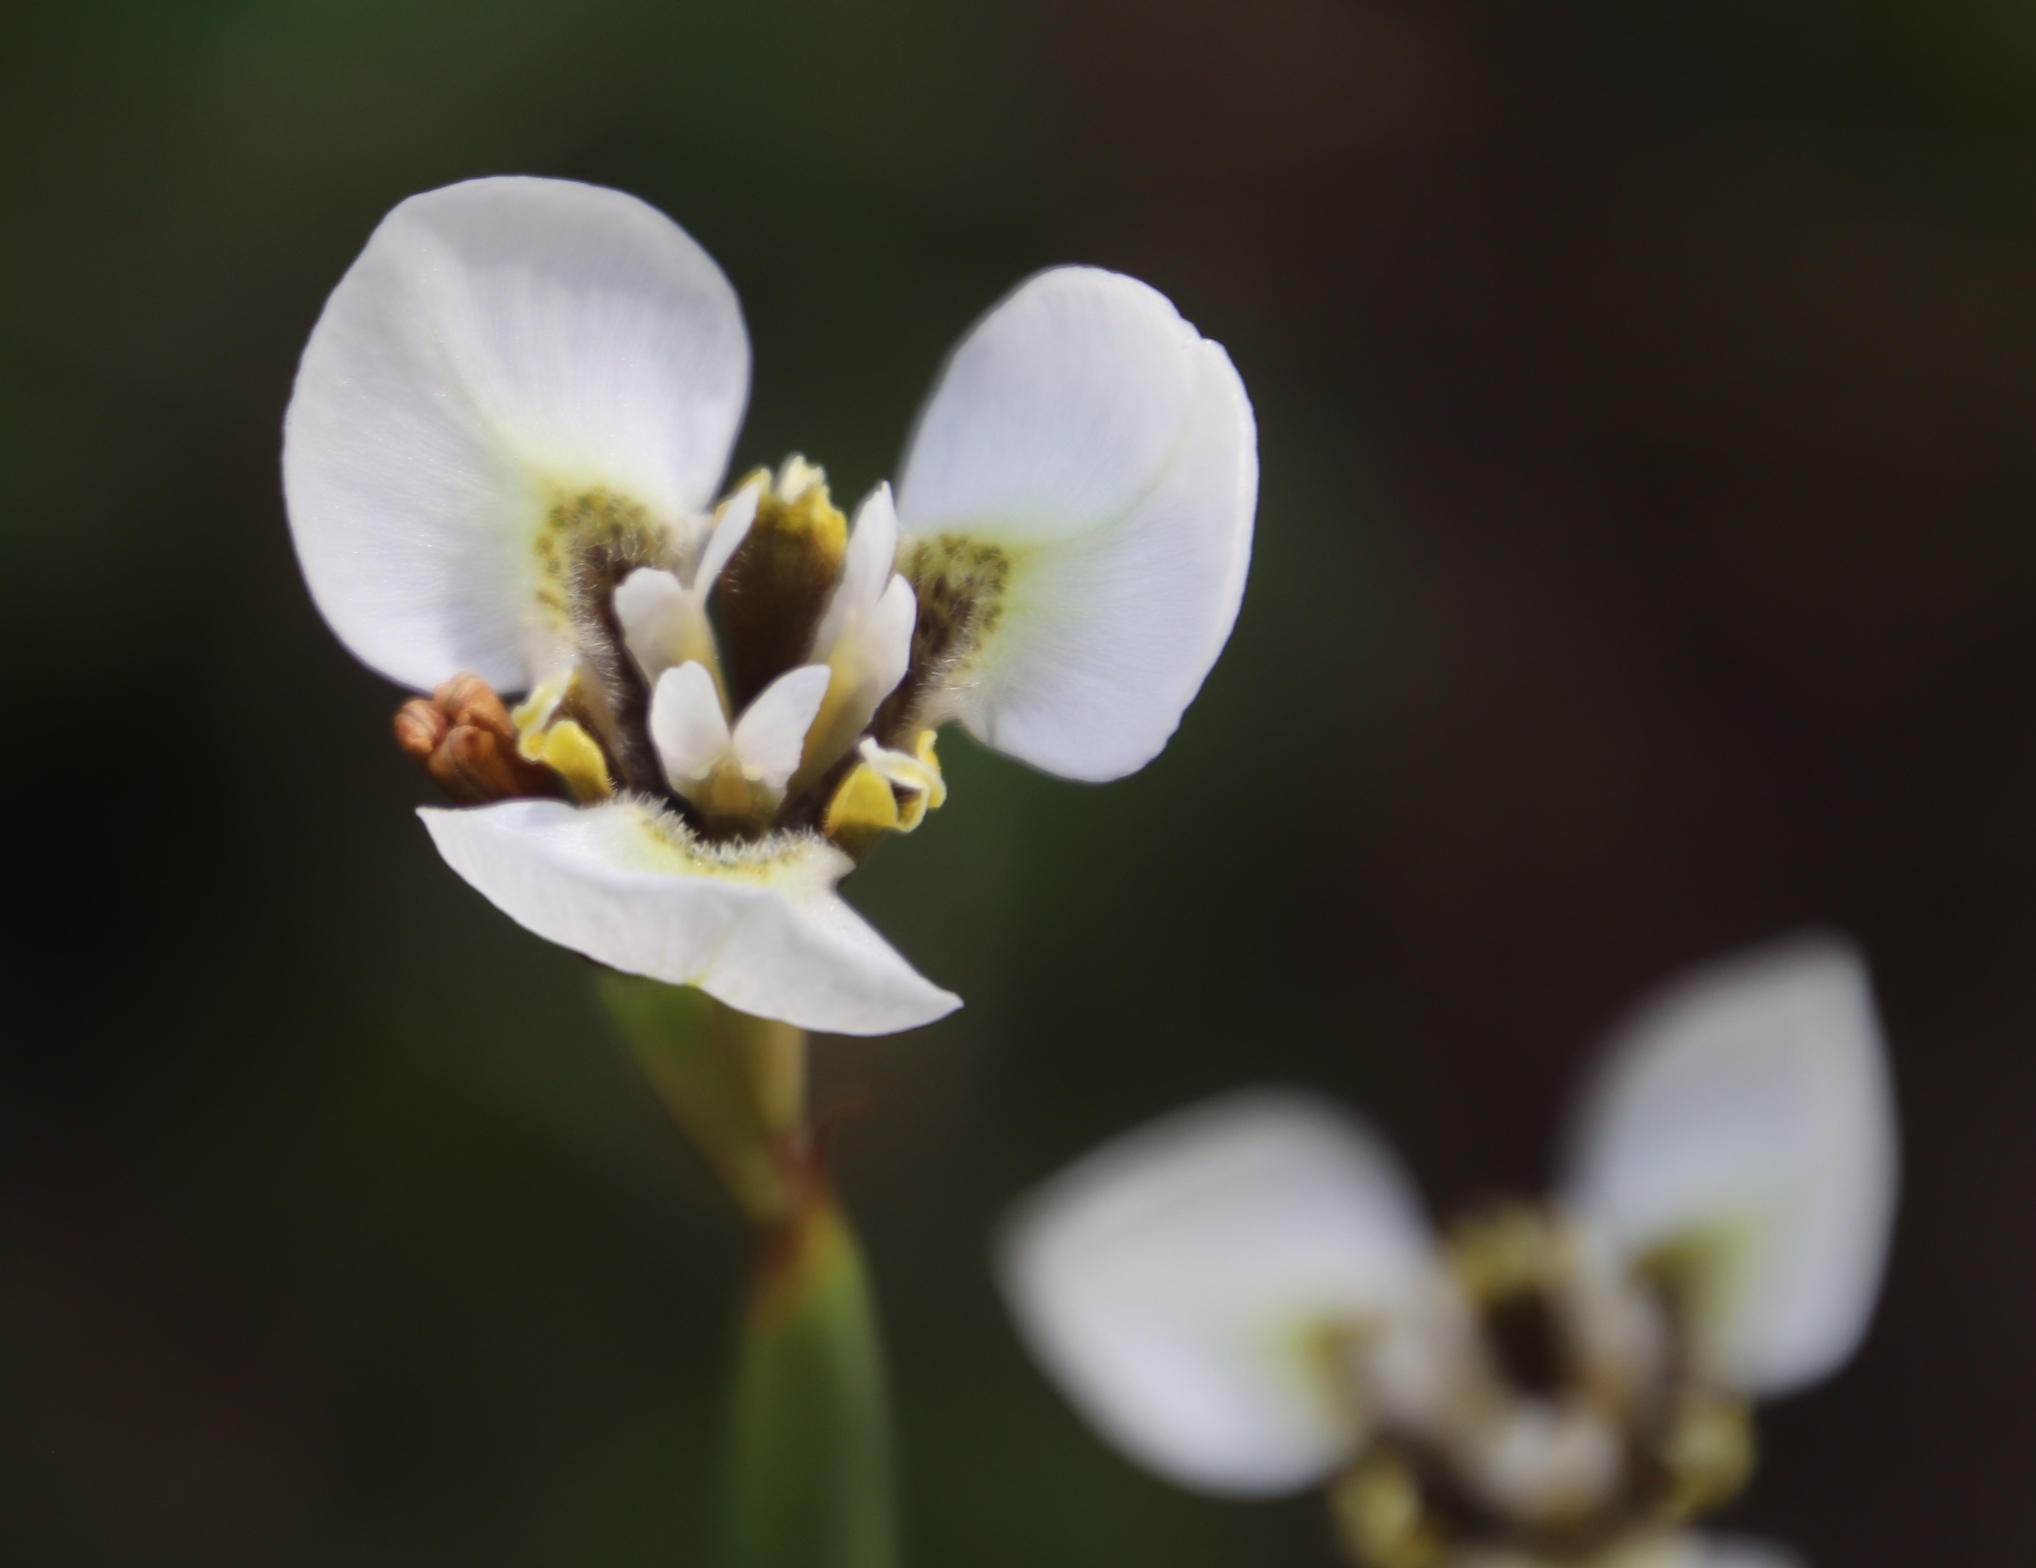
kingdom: Plantae
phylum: Tracheophyta
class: Liliopsida
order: Asparagales
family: Iridaceae
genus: Moraea
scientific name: Moraea tricuspidata
